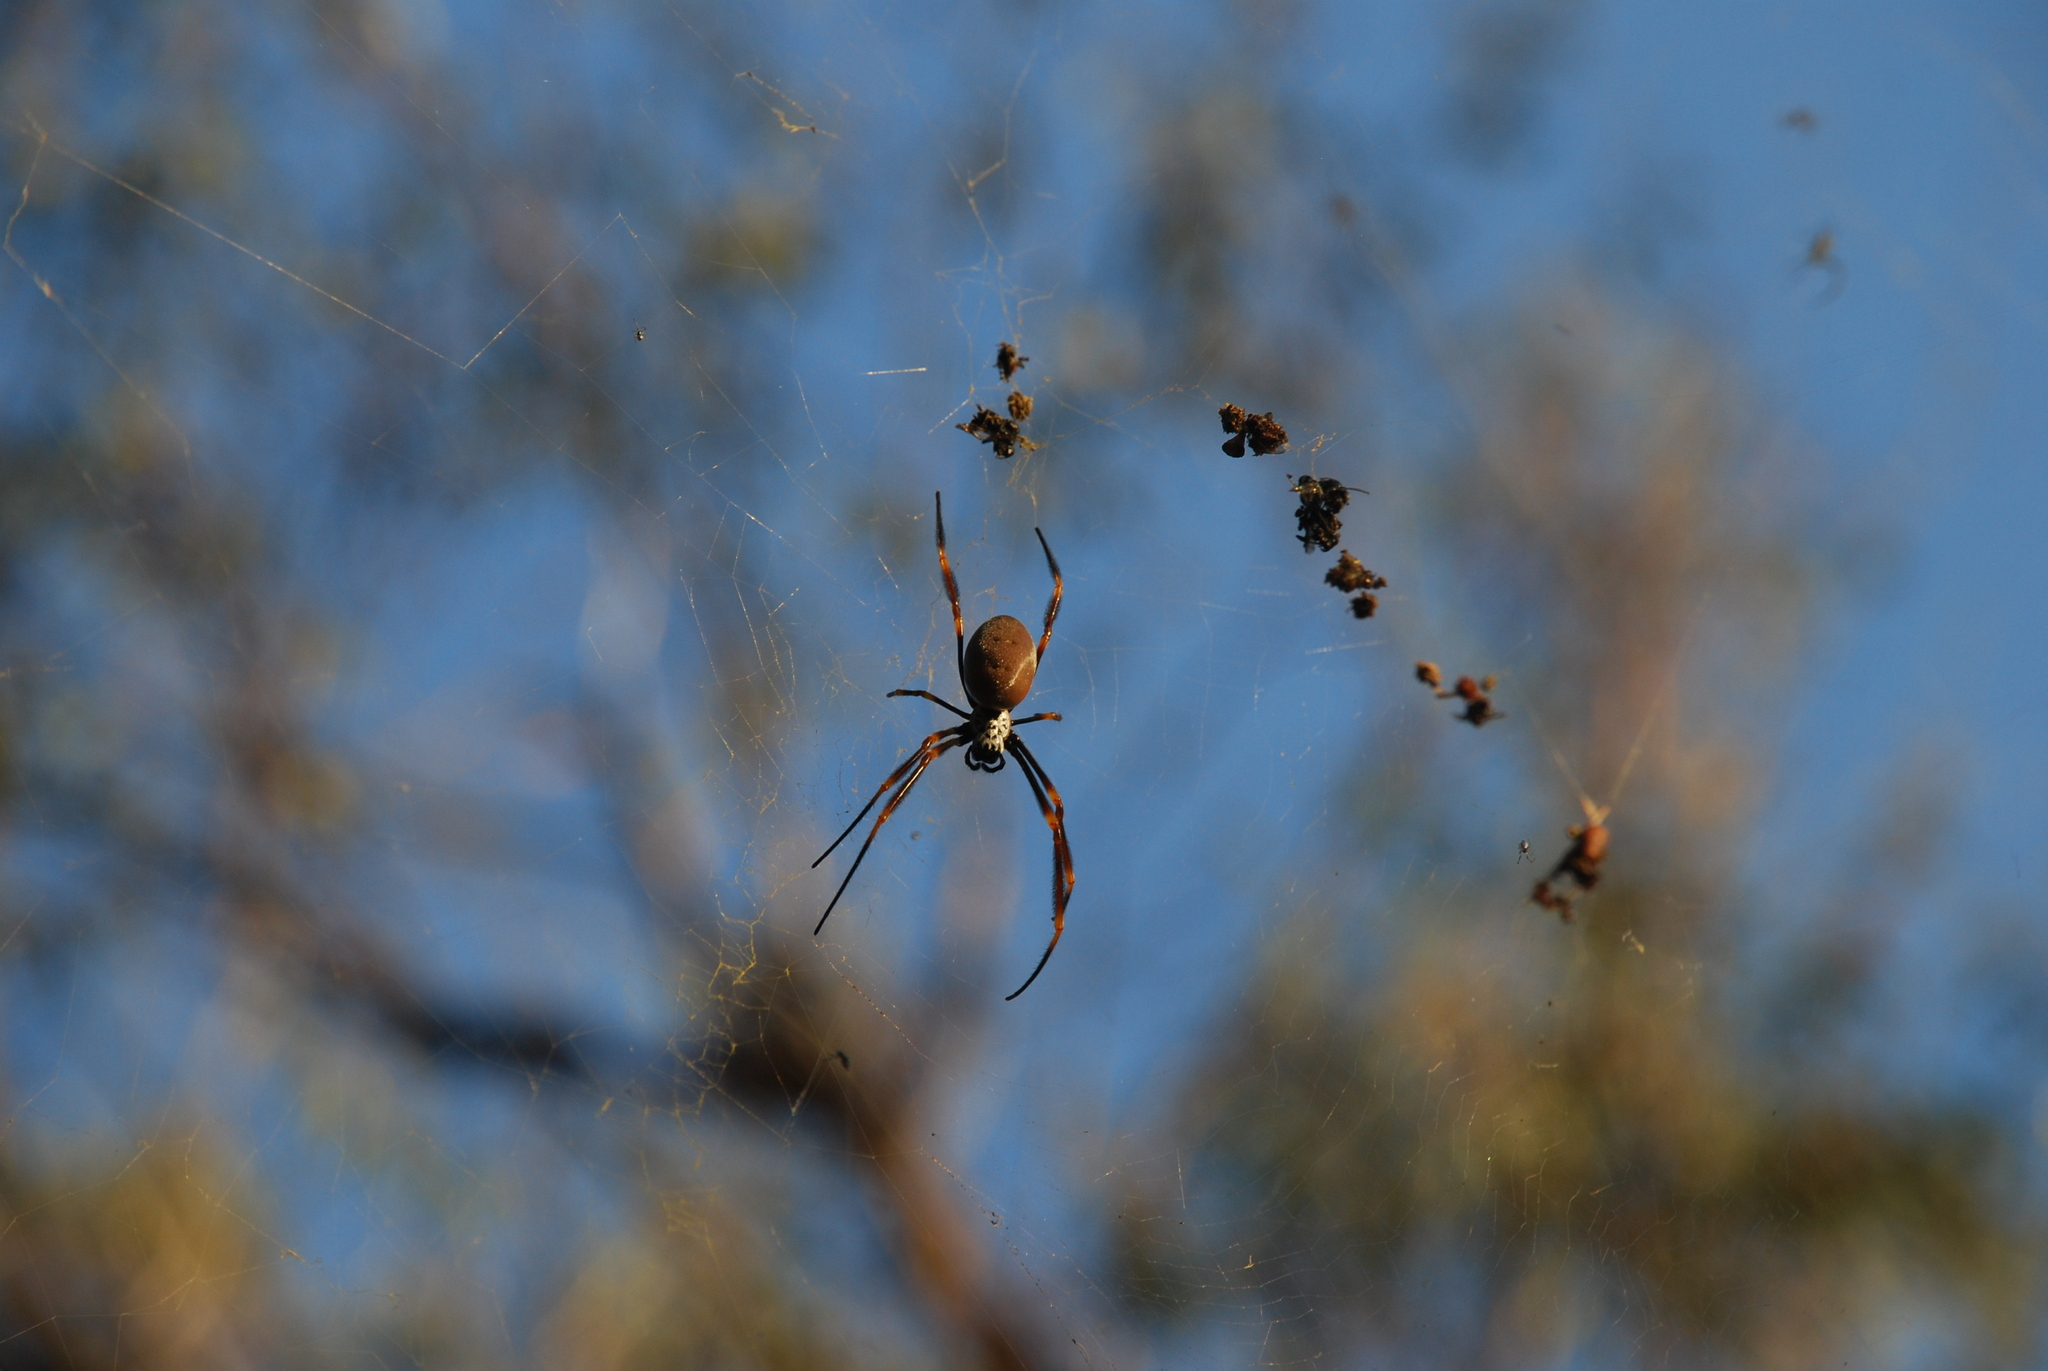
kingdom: Animalia
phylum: Arthropoda
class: Arachnida
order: Araneae
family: Araneidae
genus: Trichonephila
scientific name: Trichonephila plumipes
